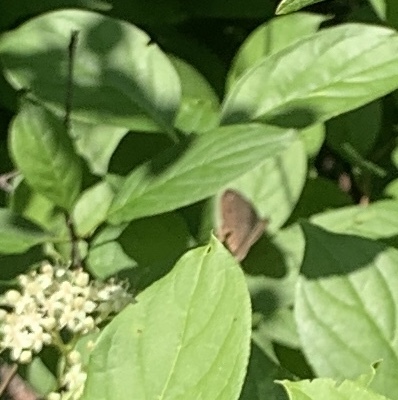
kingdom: Animalia
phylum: Arthropoda
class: Insecta
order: Lepidoptera
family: Nymphalidae
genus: Cercyonis
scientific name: Cercyonis pegala
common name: Common wood-nymph
